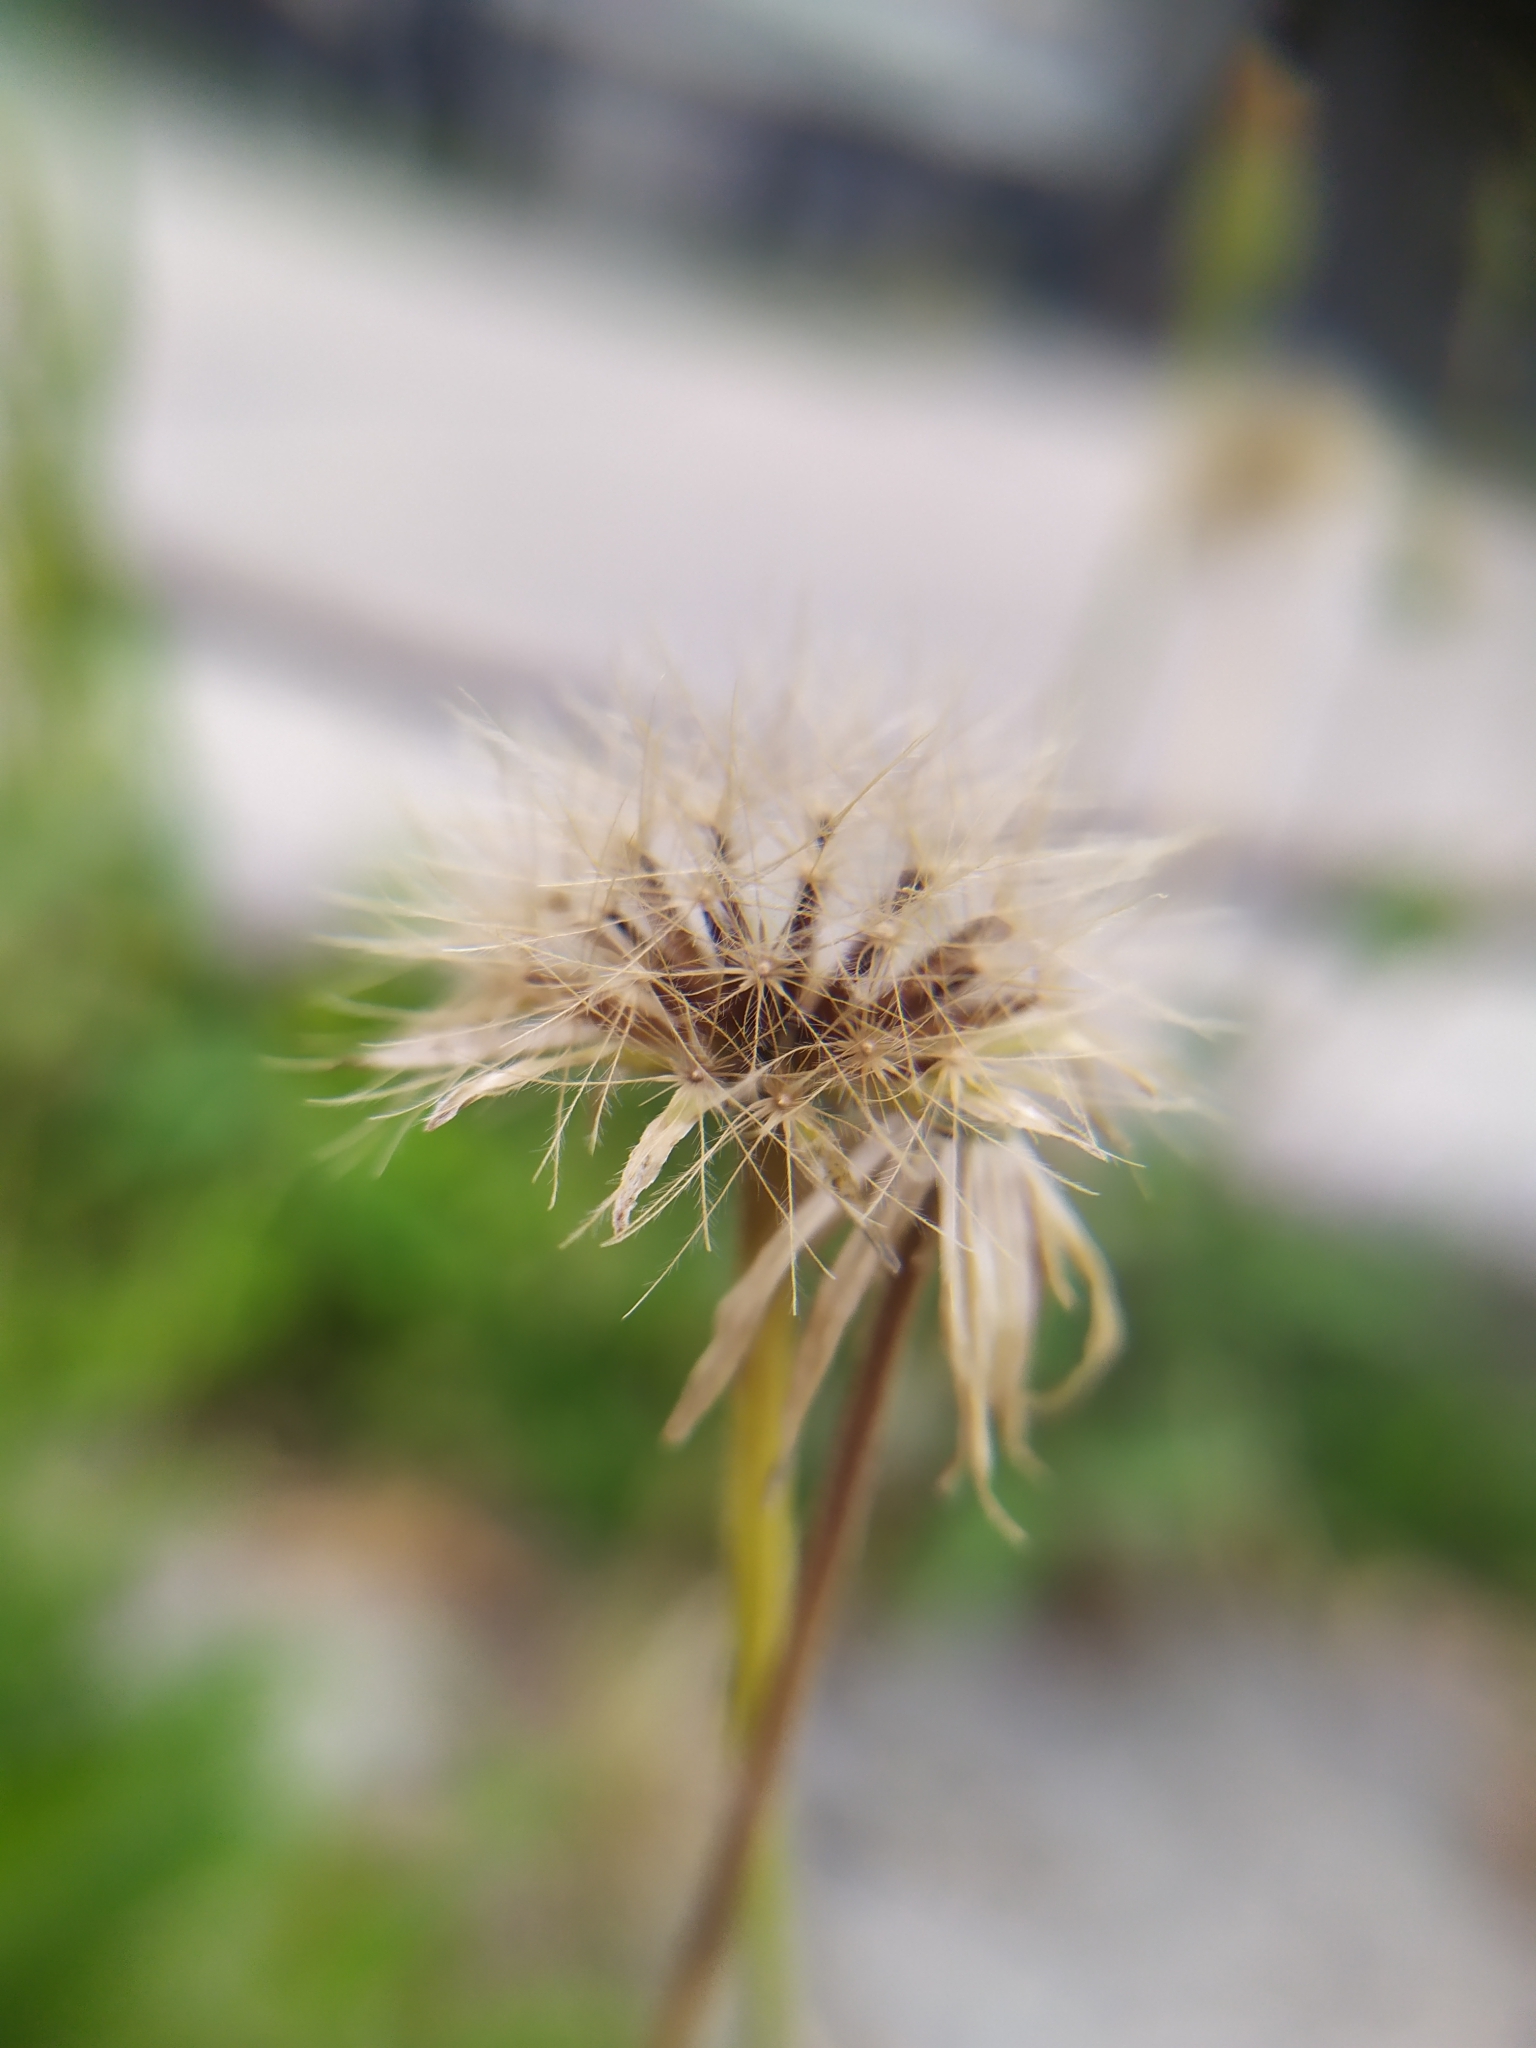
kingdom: Plantae
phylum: Tracheophyta
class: Magnoliopsida
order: Asterales
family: Asteraceae
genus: Leontodon
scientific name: Leontodon hispidus
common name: Rough hawkbit
